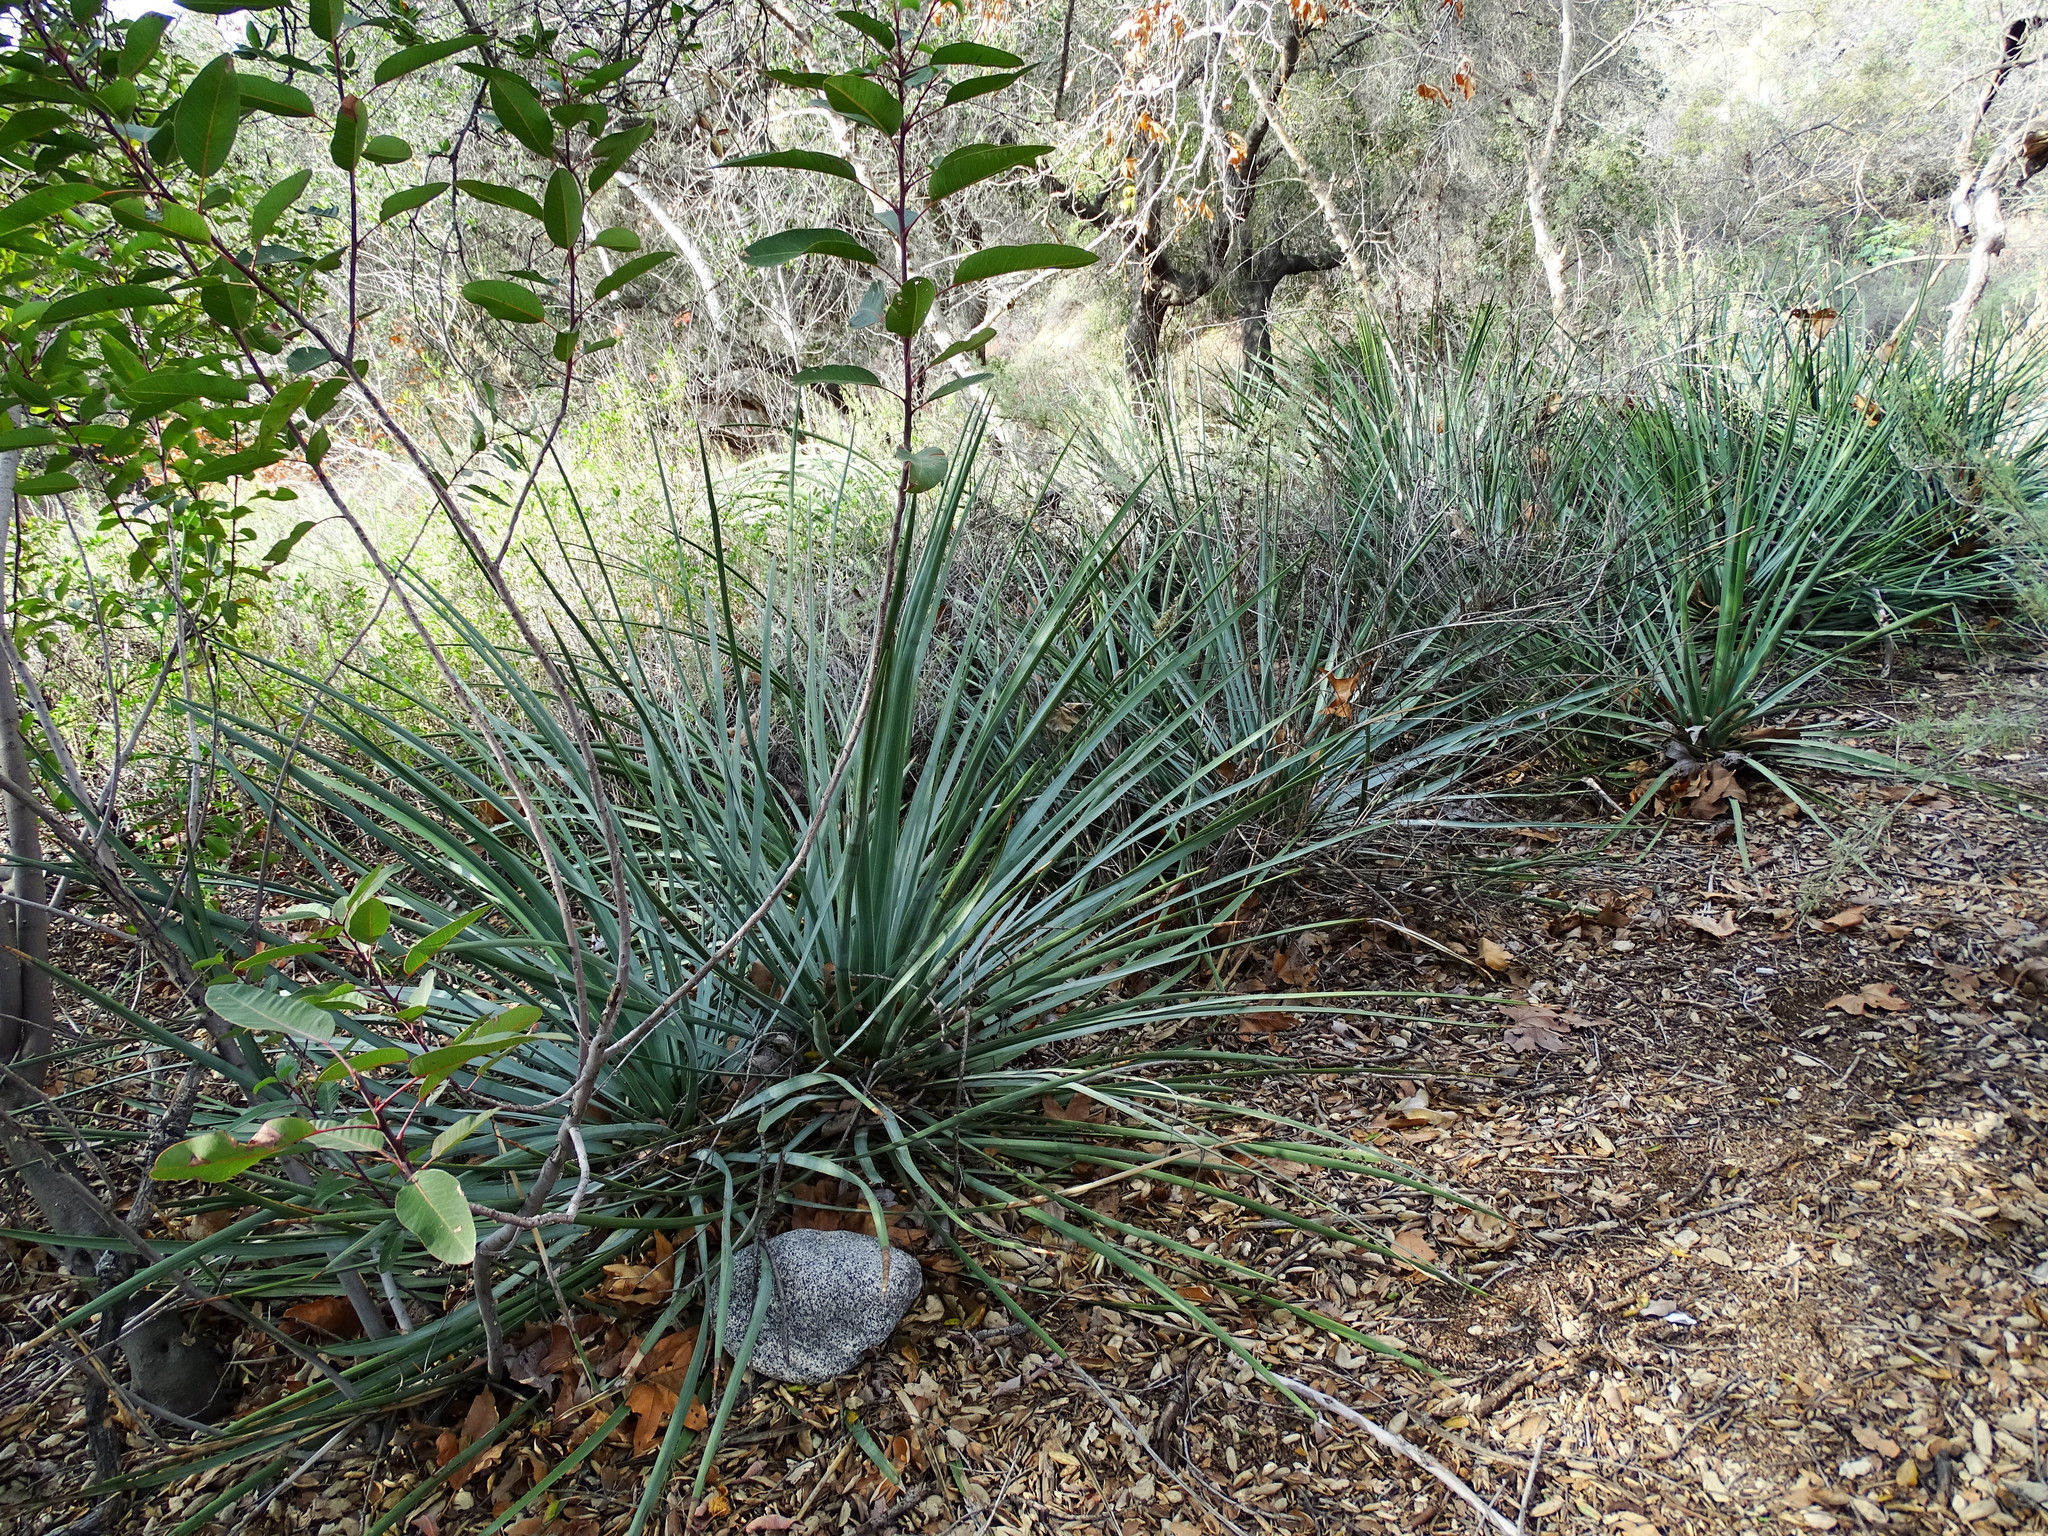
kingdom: Plantae
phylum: Tracheophyta
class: Liliopsida
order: Asparagales
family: Asparagaceae
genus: Hesperoyucca
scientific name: Hesperoyucca whipplei
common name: Our lord's-candle
